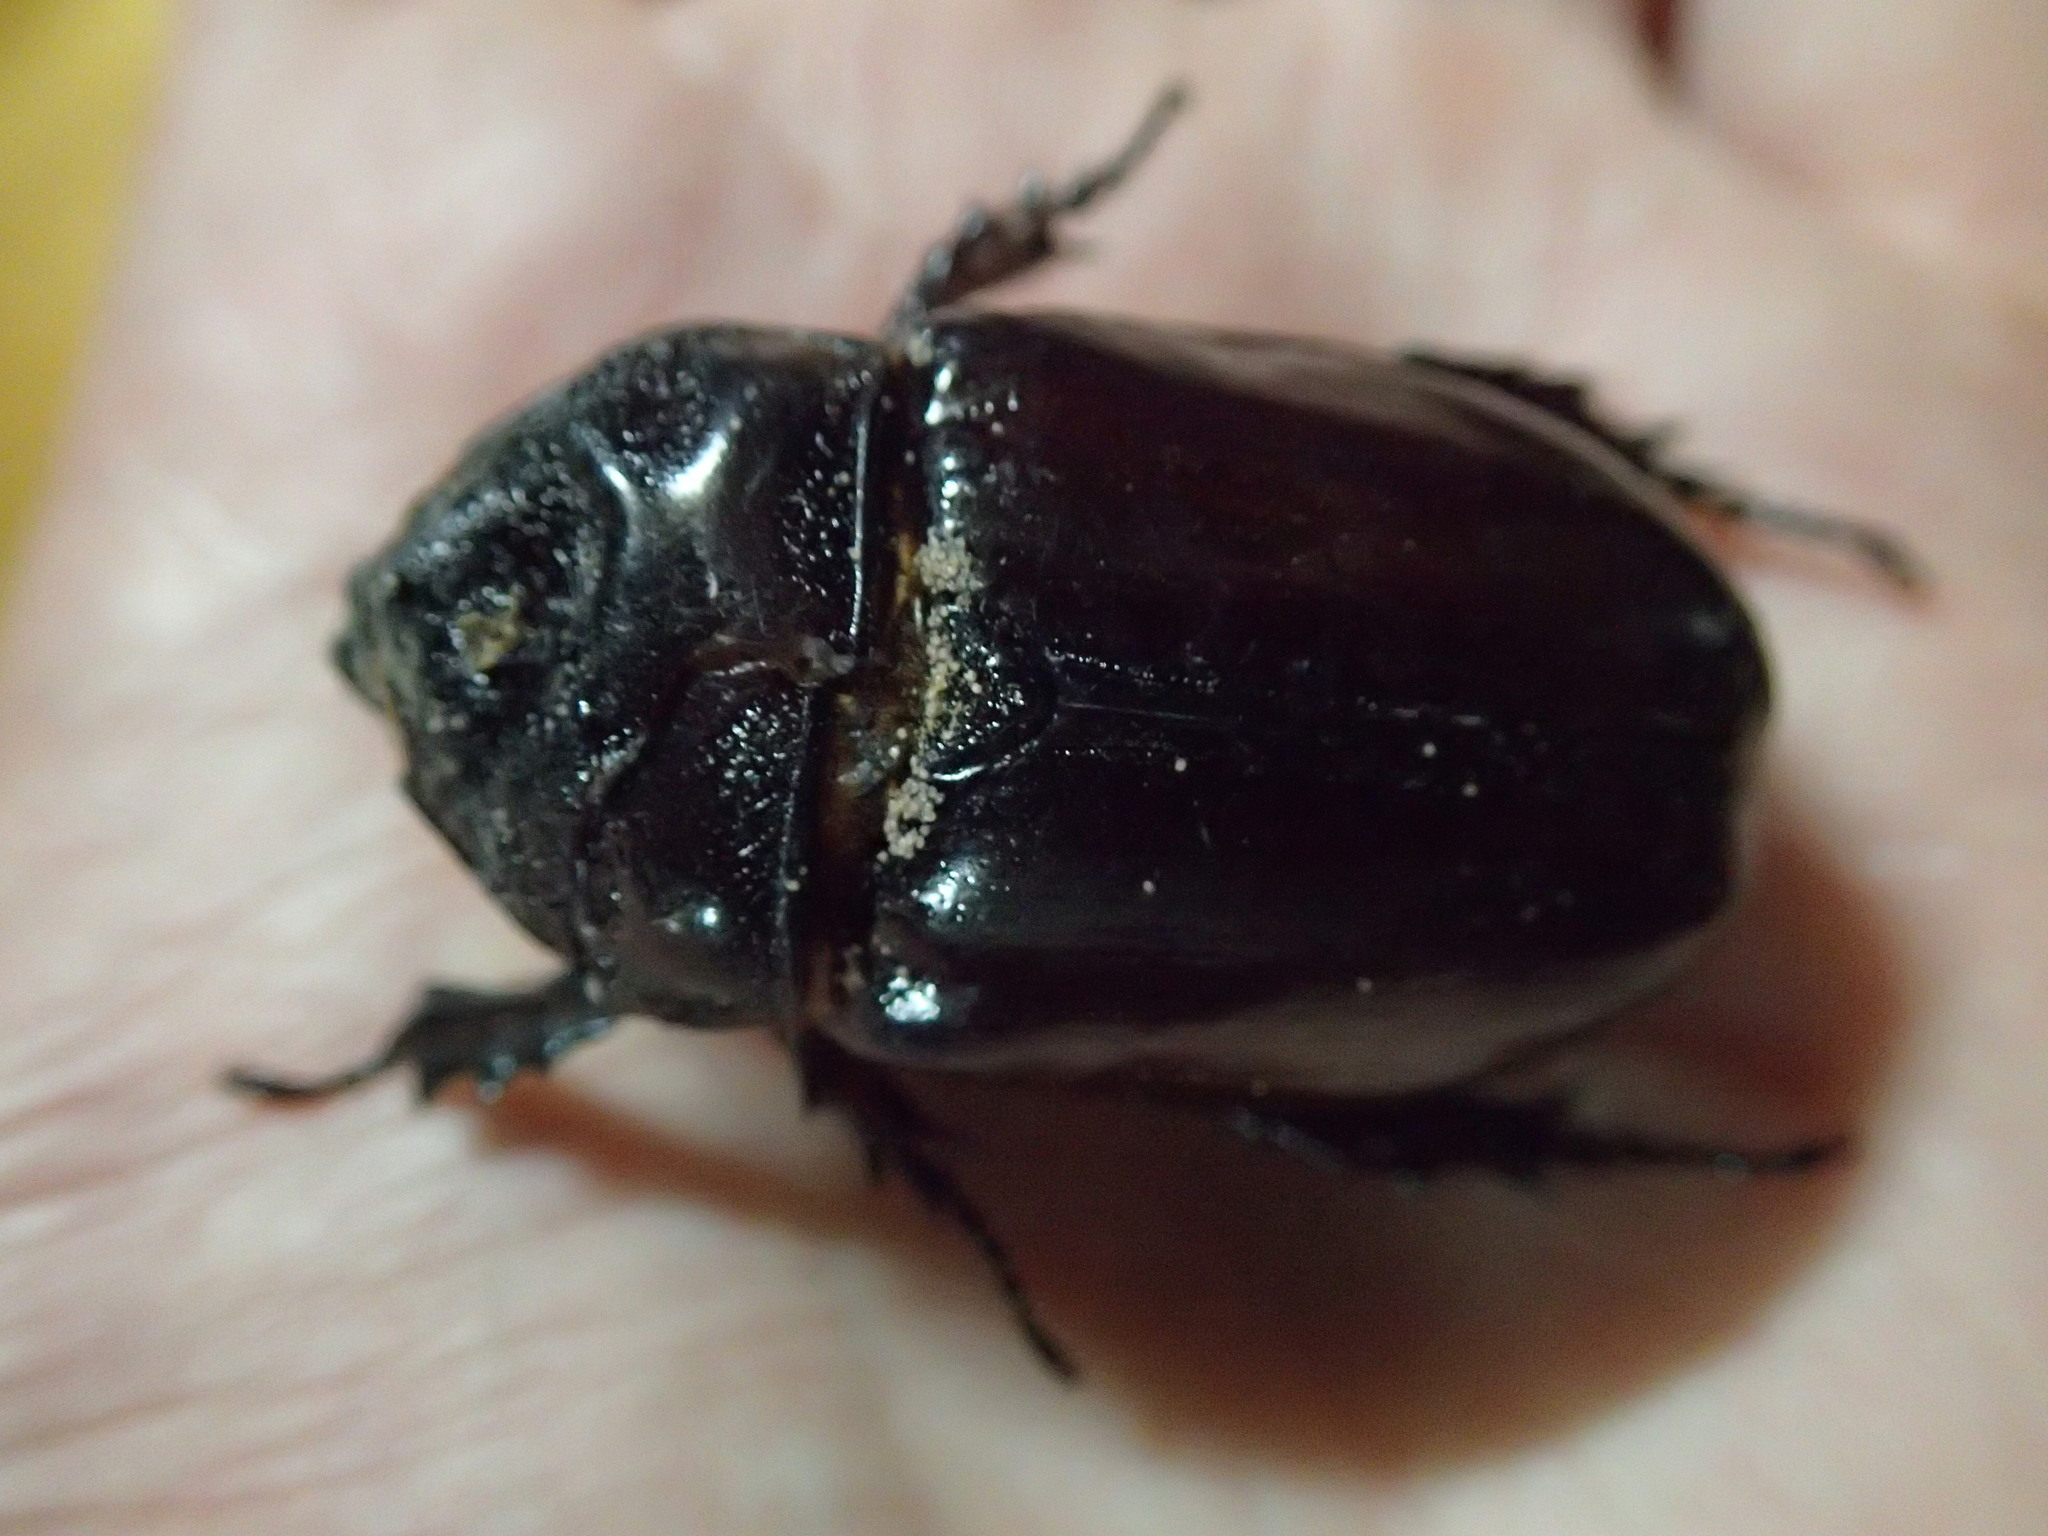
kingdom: Animalia
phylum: Arthropoda
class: Insecta
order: Coleoptera
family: Scarabaeidae
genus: Strategus
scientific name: Strategus aloeus
